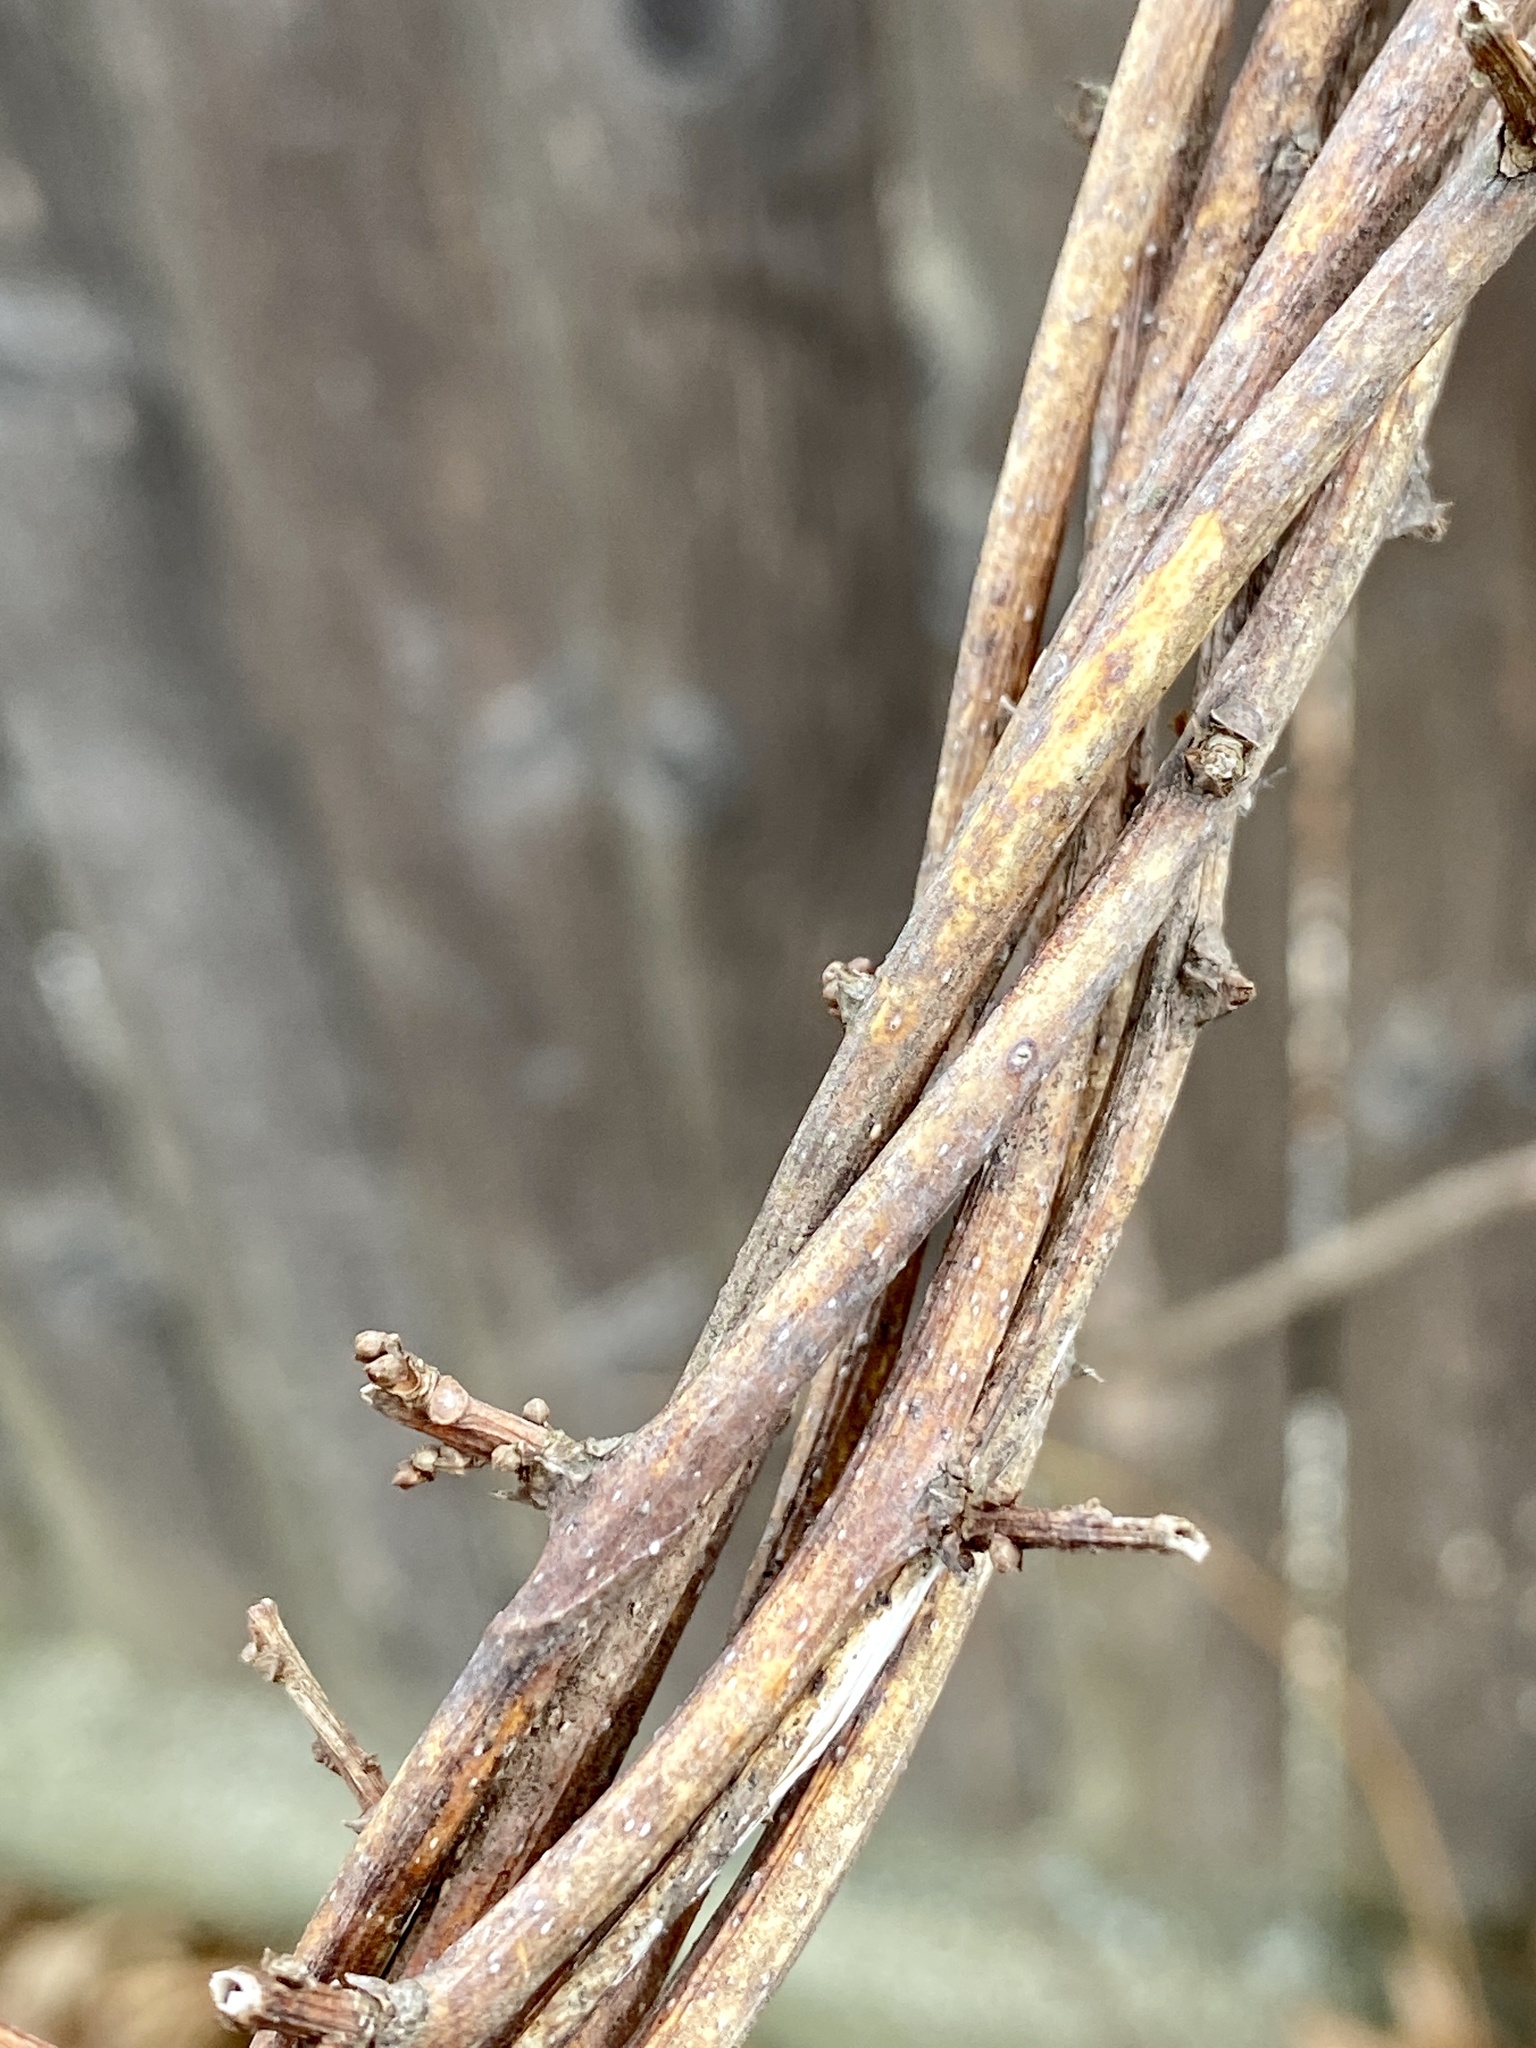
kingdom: Plantae
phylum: Tracheophyta
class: Magnoliopsida
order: Celastrales
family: Celastraceae
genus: Celastrus
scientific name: Celastrus orbiculatus
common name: Oriental bittersweet
